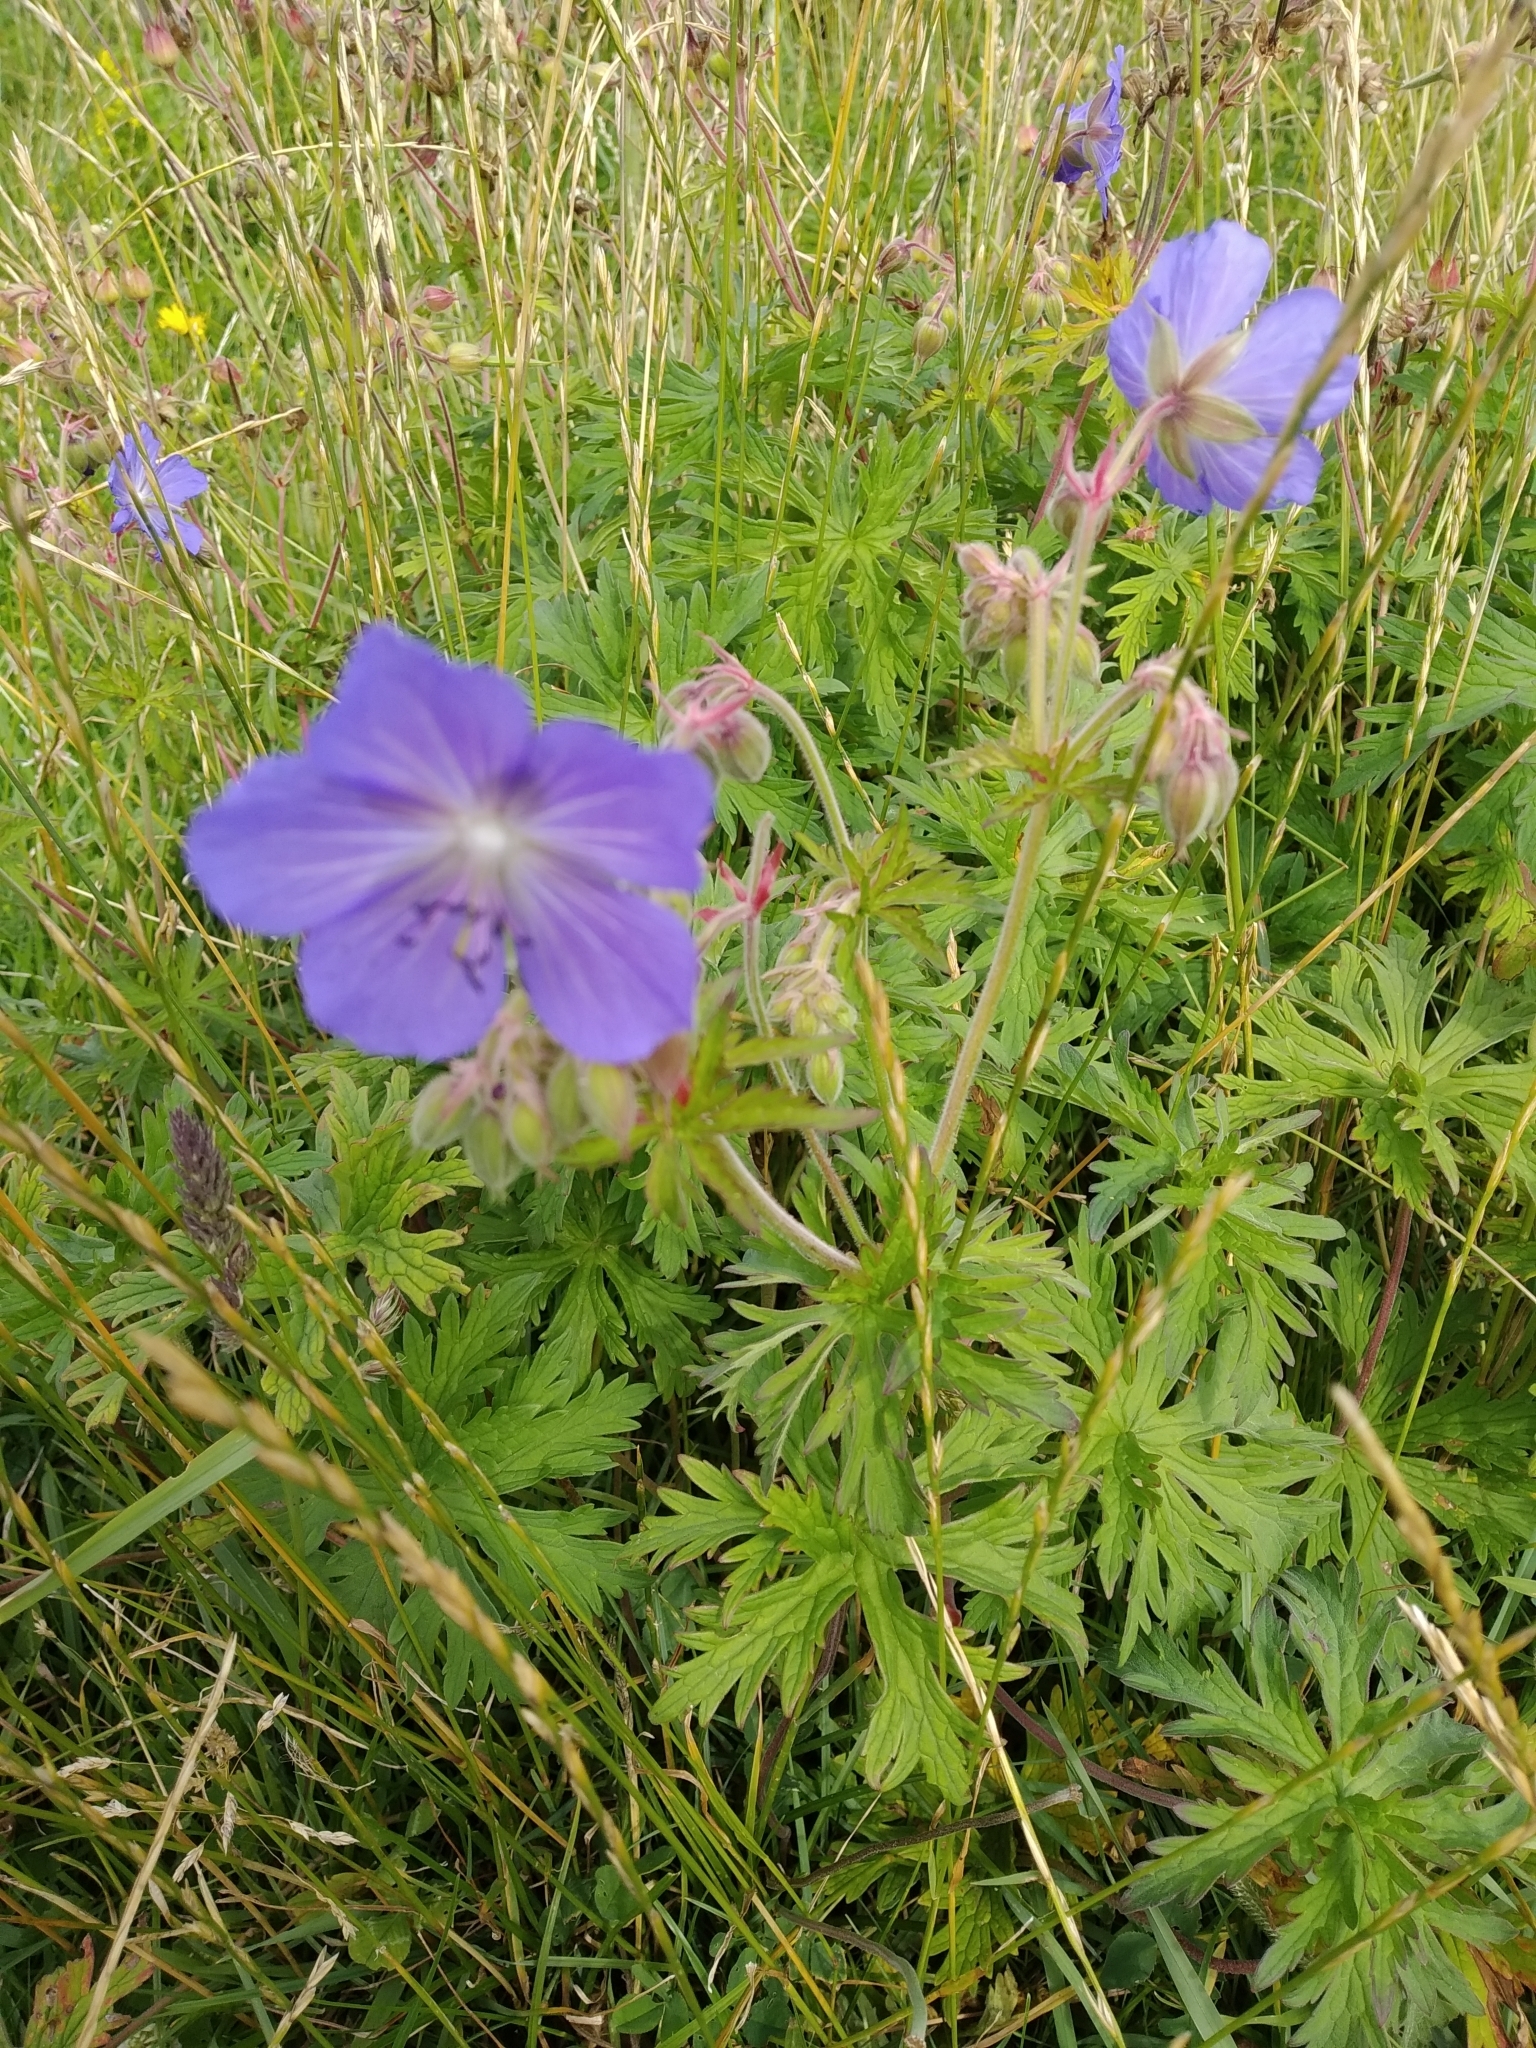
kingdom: Plantae
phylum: Tracheophyta
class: Magnoliopsida
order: Geraniales
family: Geraniaceae
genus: Geranium
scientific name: Geranium pratense
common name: Meadow crane's-bill
